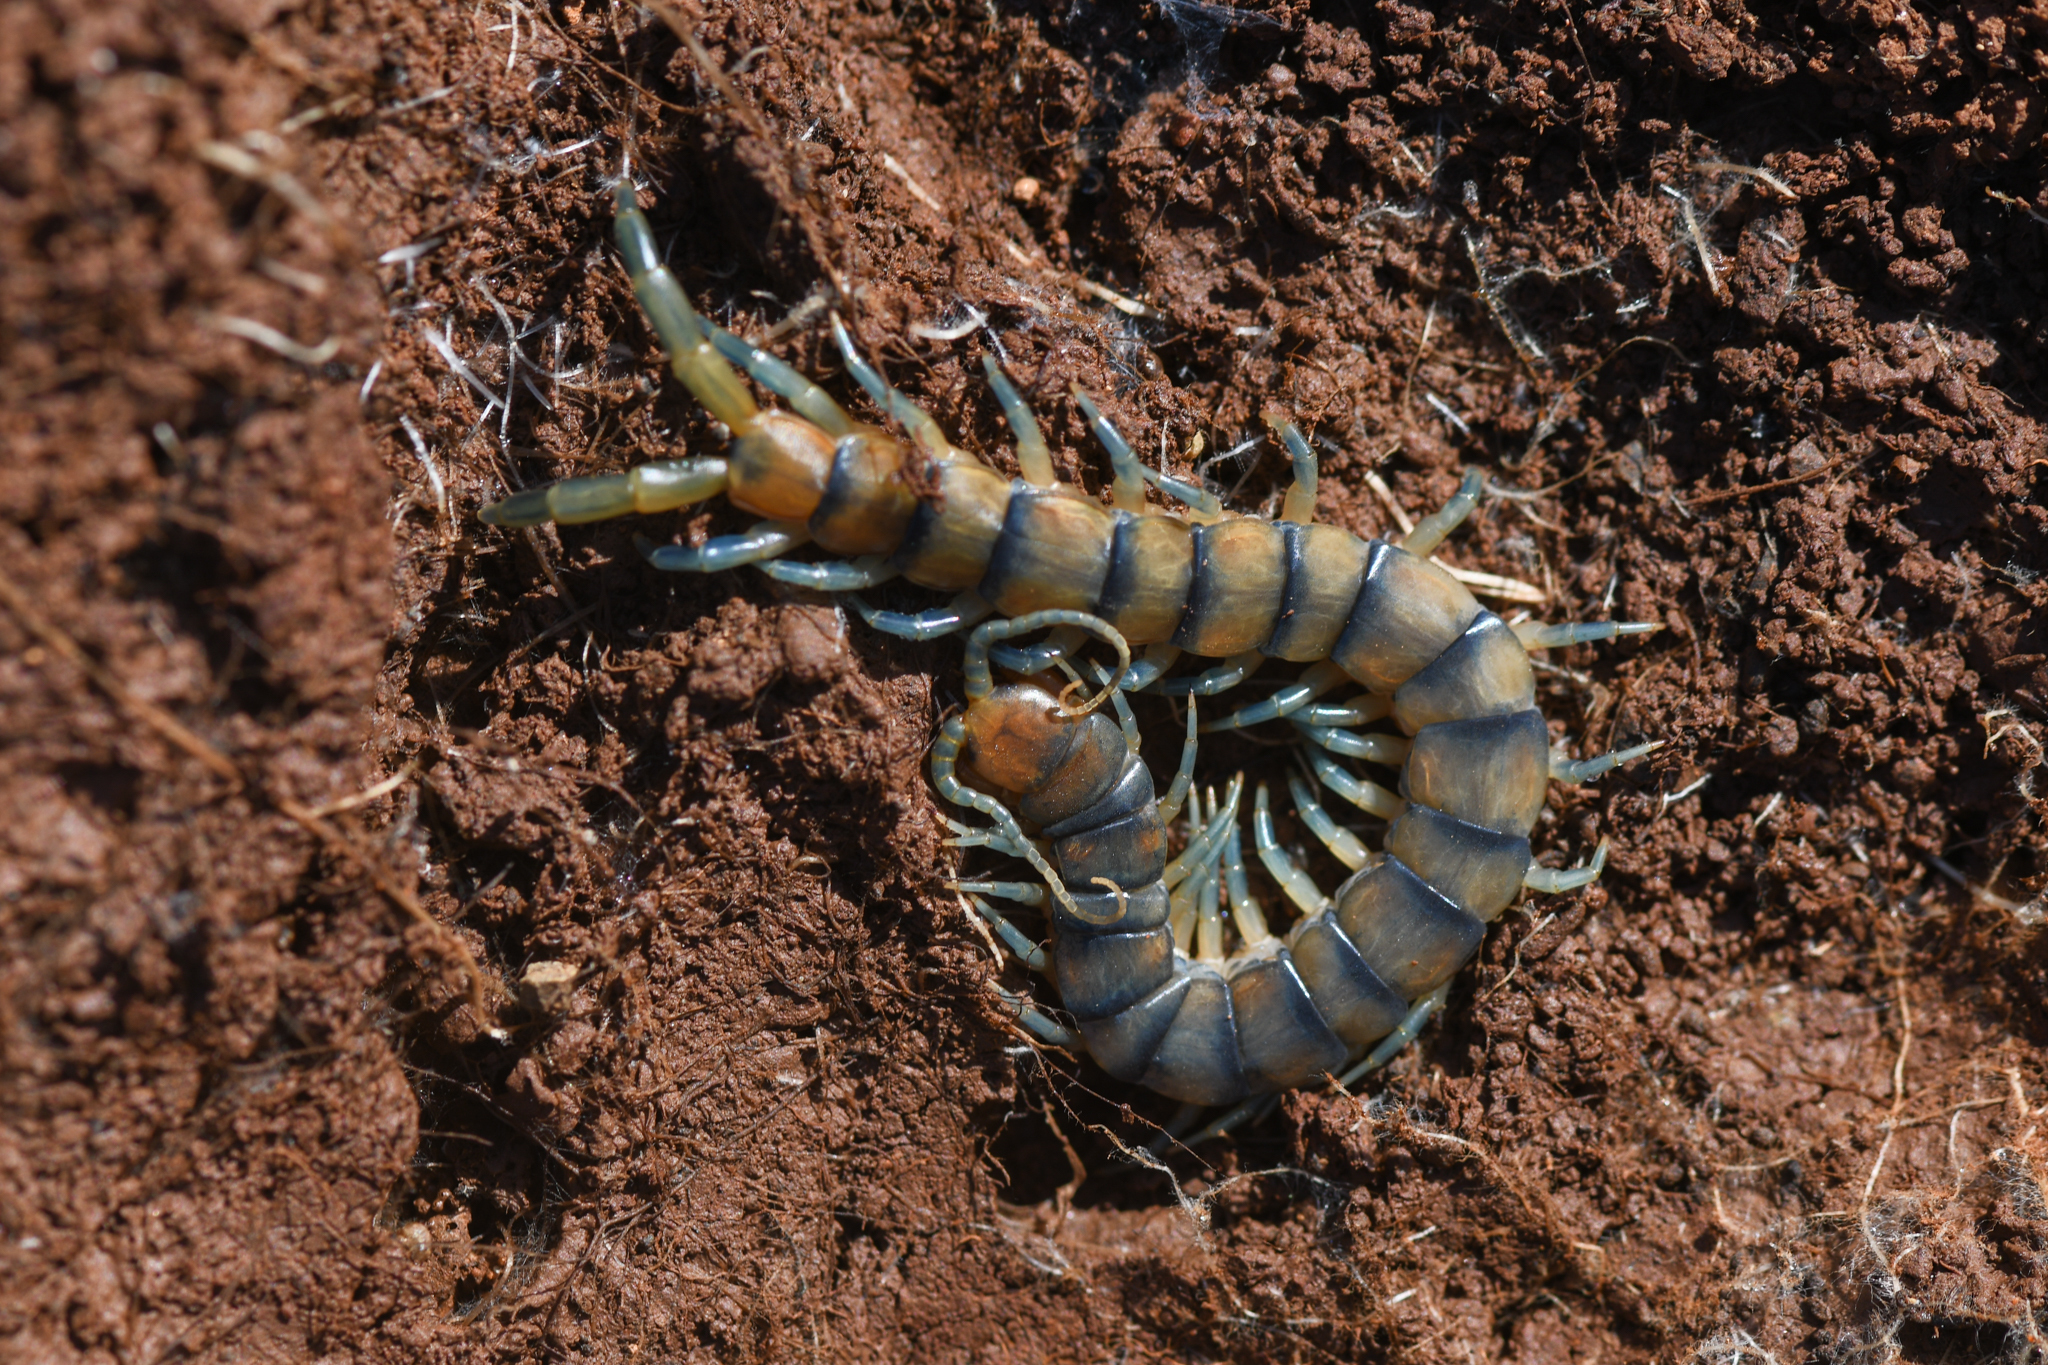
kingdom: Animalia
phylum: Arthropoda
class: Chilopoda
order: Scolopendromorpha
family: Scolopendridae
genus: Scolopendra
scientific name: Scolopendra polymorpha
